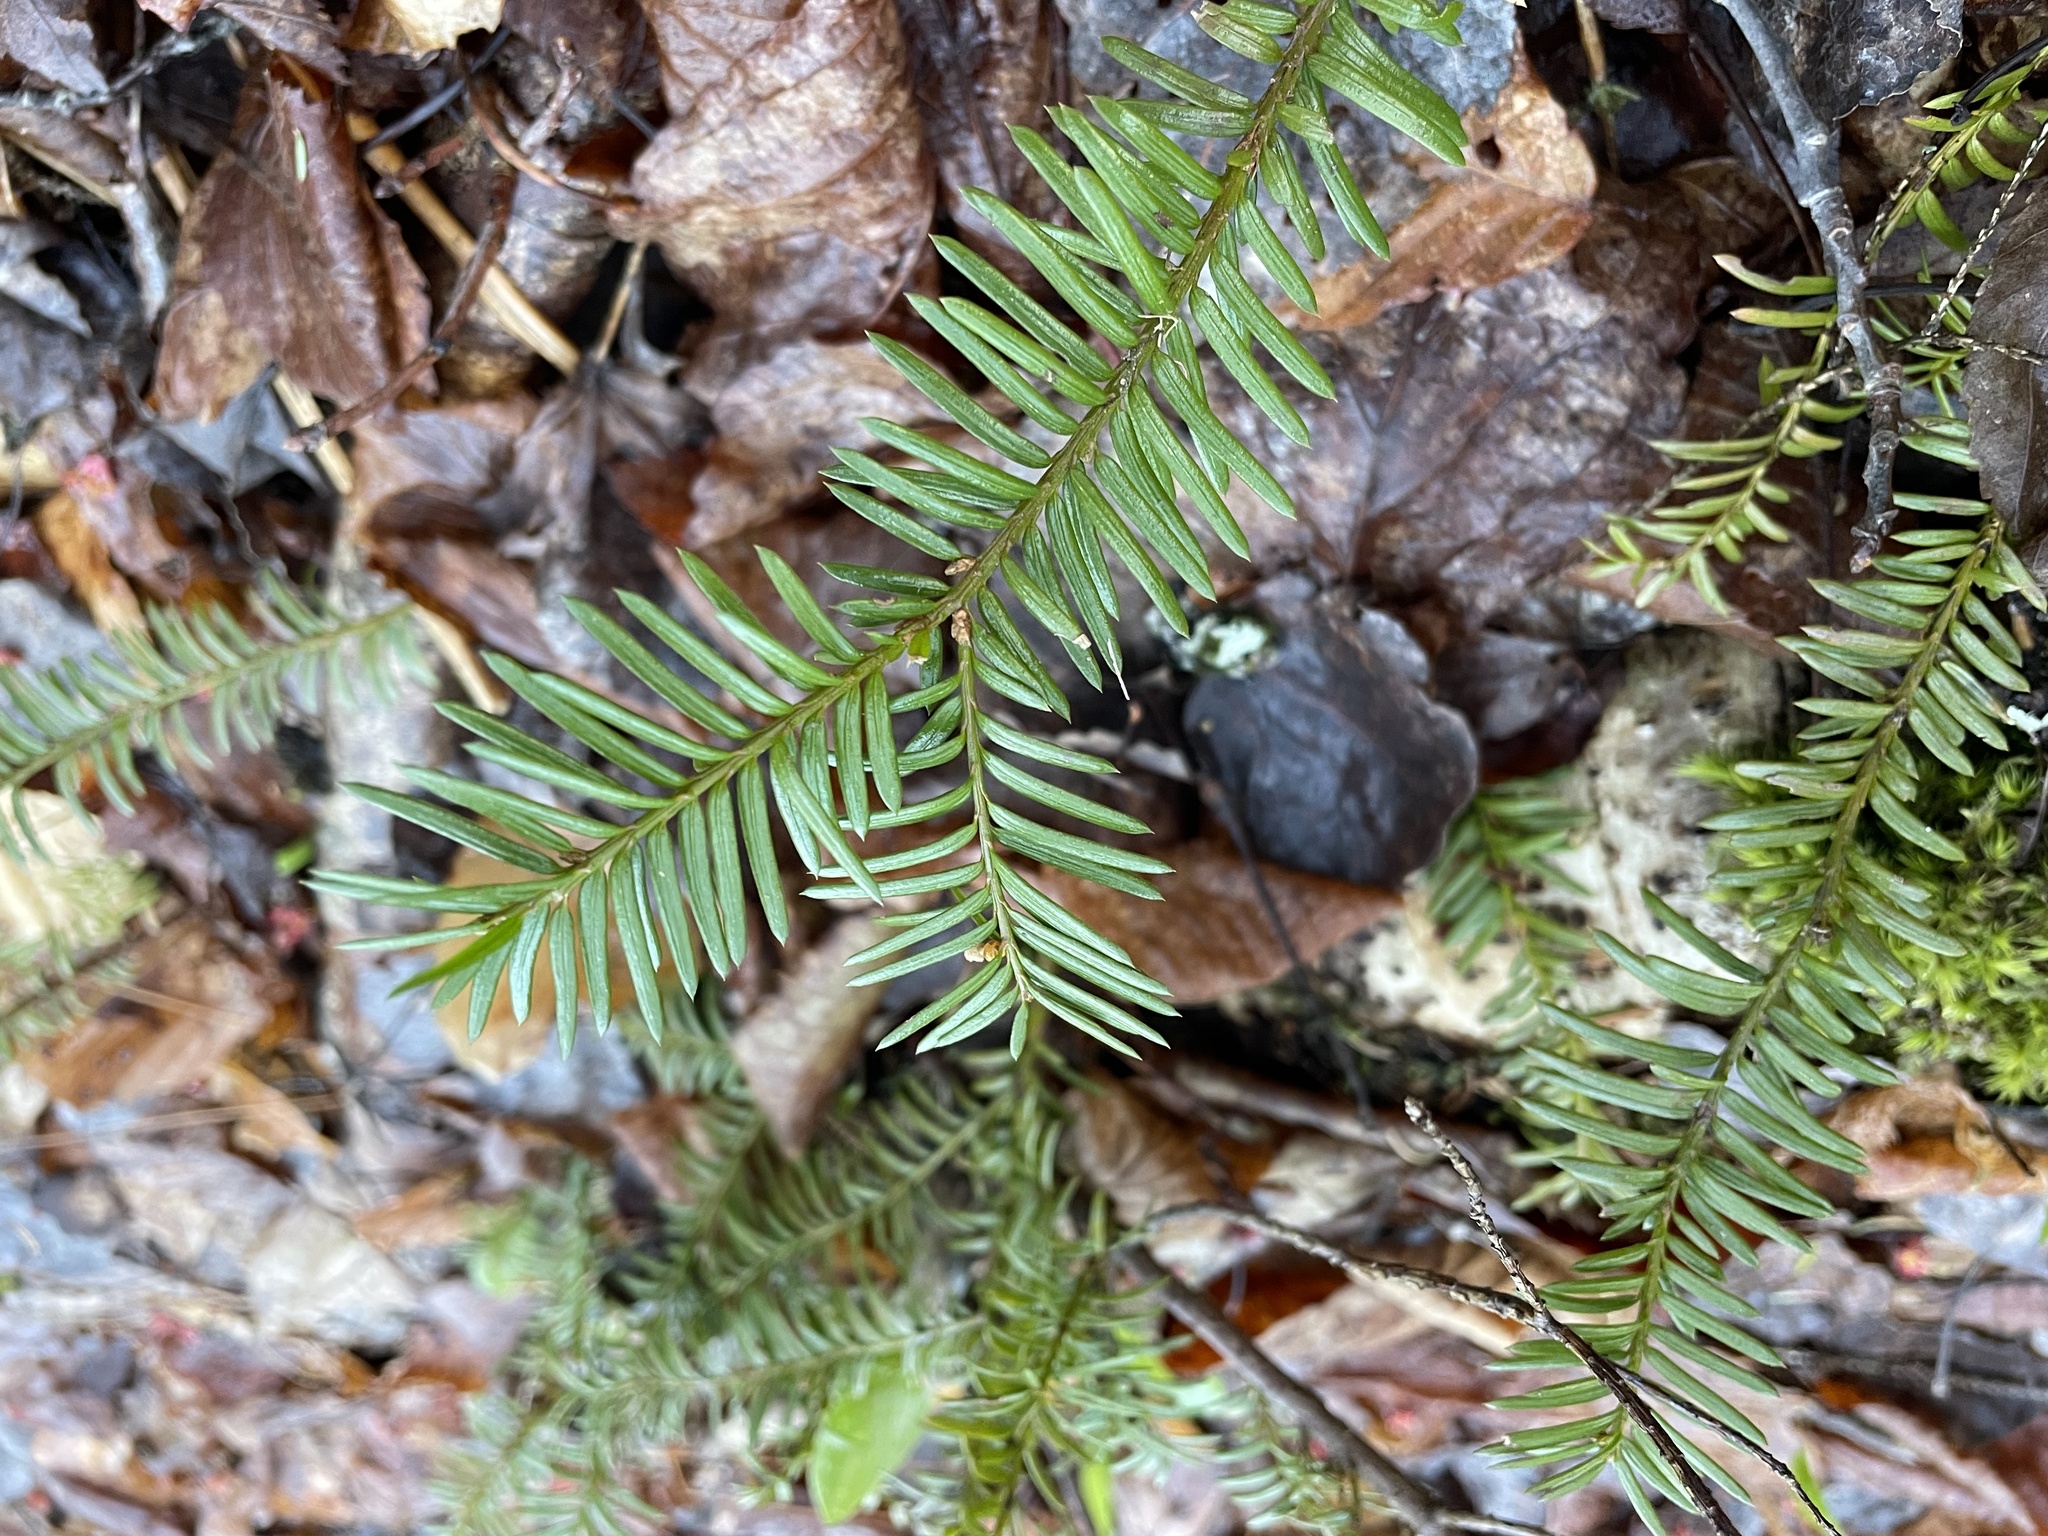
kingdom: Plantae
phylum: Tracheophyta
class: Pinopsida
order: Pinales
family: Taxaceae
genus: Taxus
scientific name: Taxus canadensis
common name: American yew
